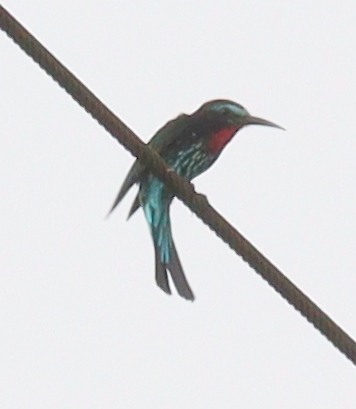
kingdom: Animalia
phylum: Chordata
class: Aves
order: Coraciiformes
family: Meropidae
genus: Merops
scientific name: Merops gularis
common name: Black bee-eater
